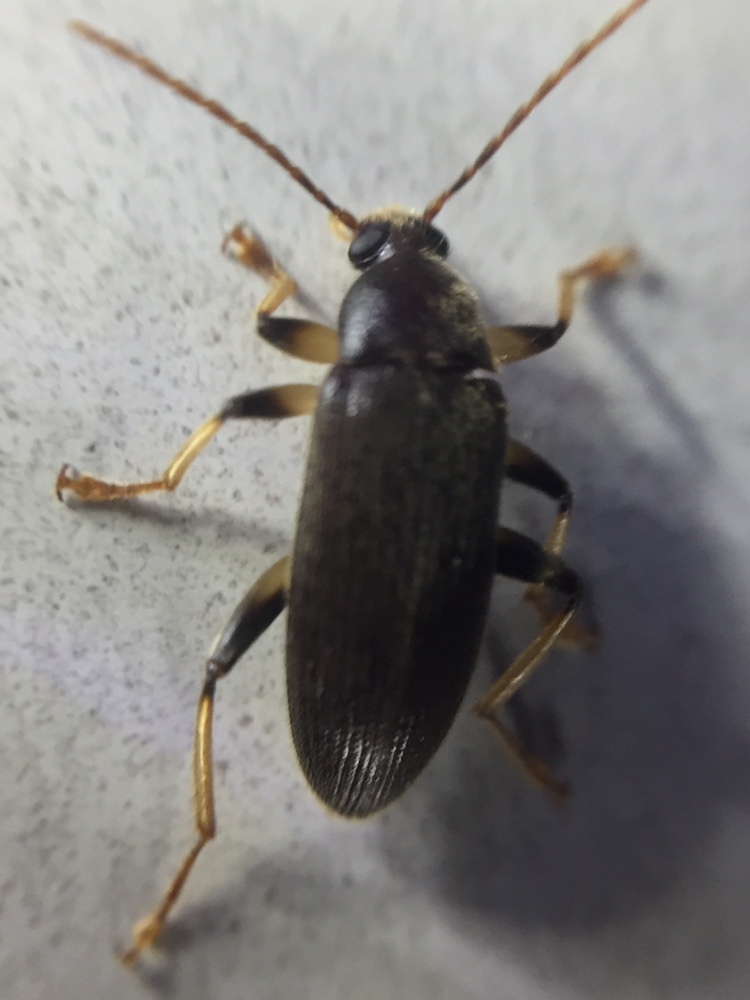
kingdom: Animalia
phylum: Arthropoda
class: Insecta
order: Coleoptera
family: Tenebrionidae
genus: Homotrysis
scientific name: Homotrysis
